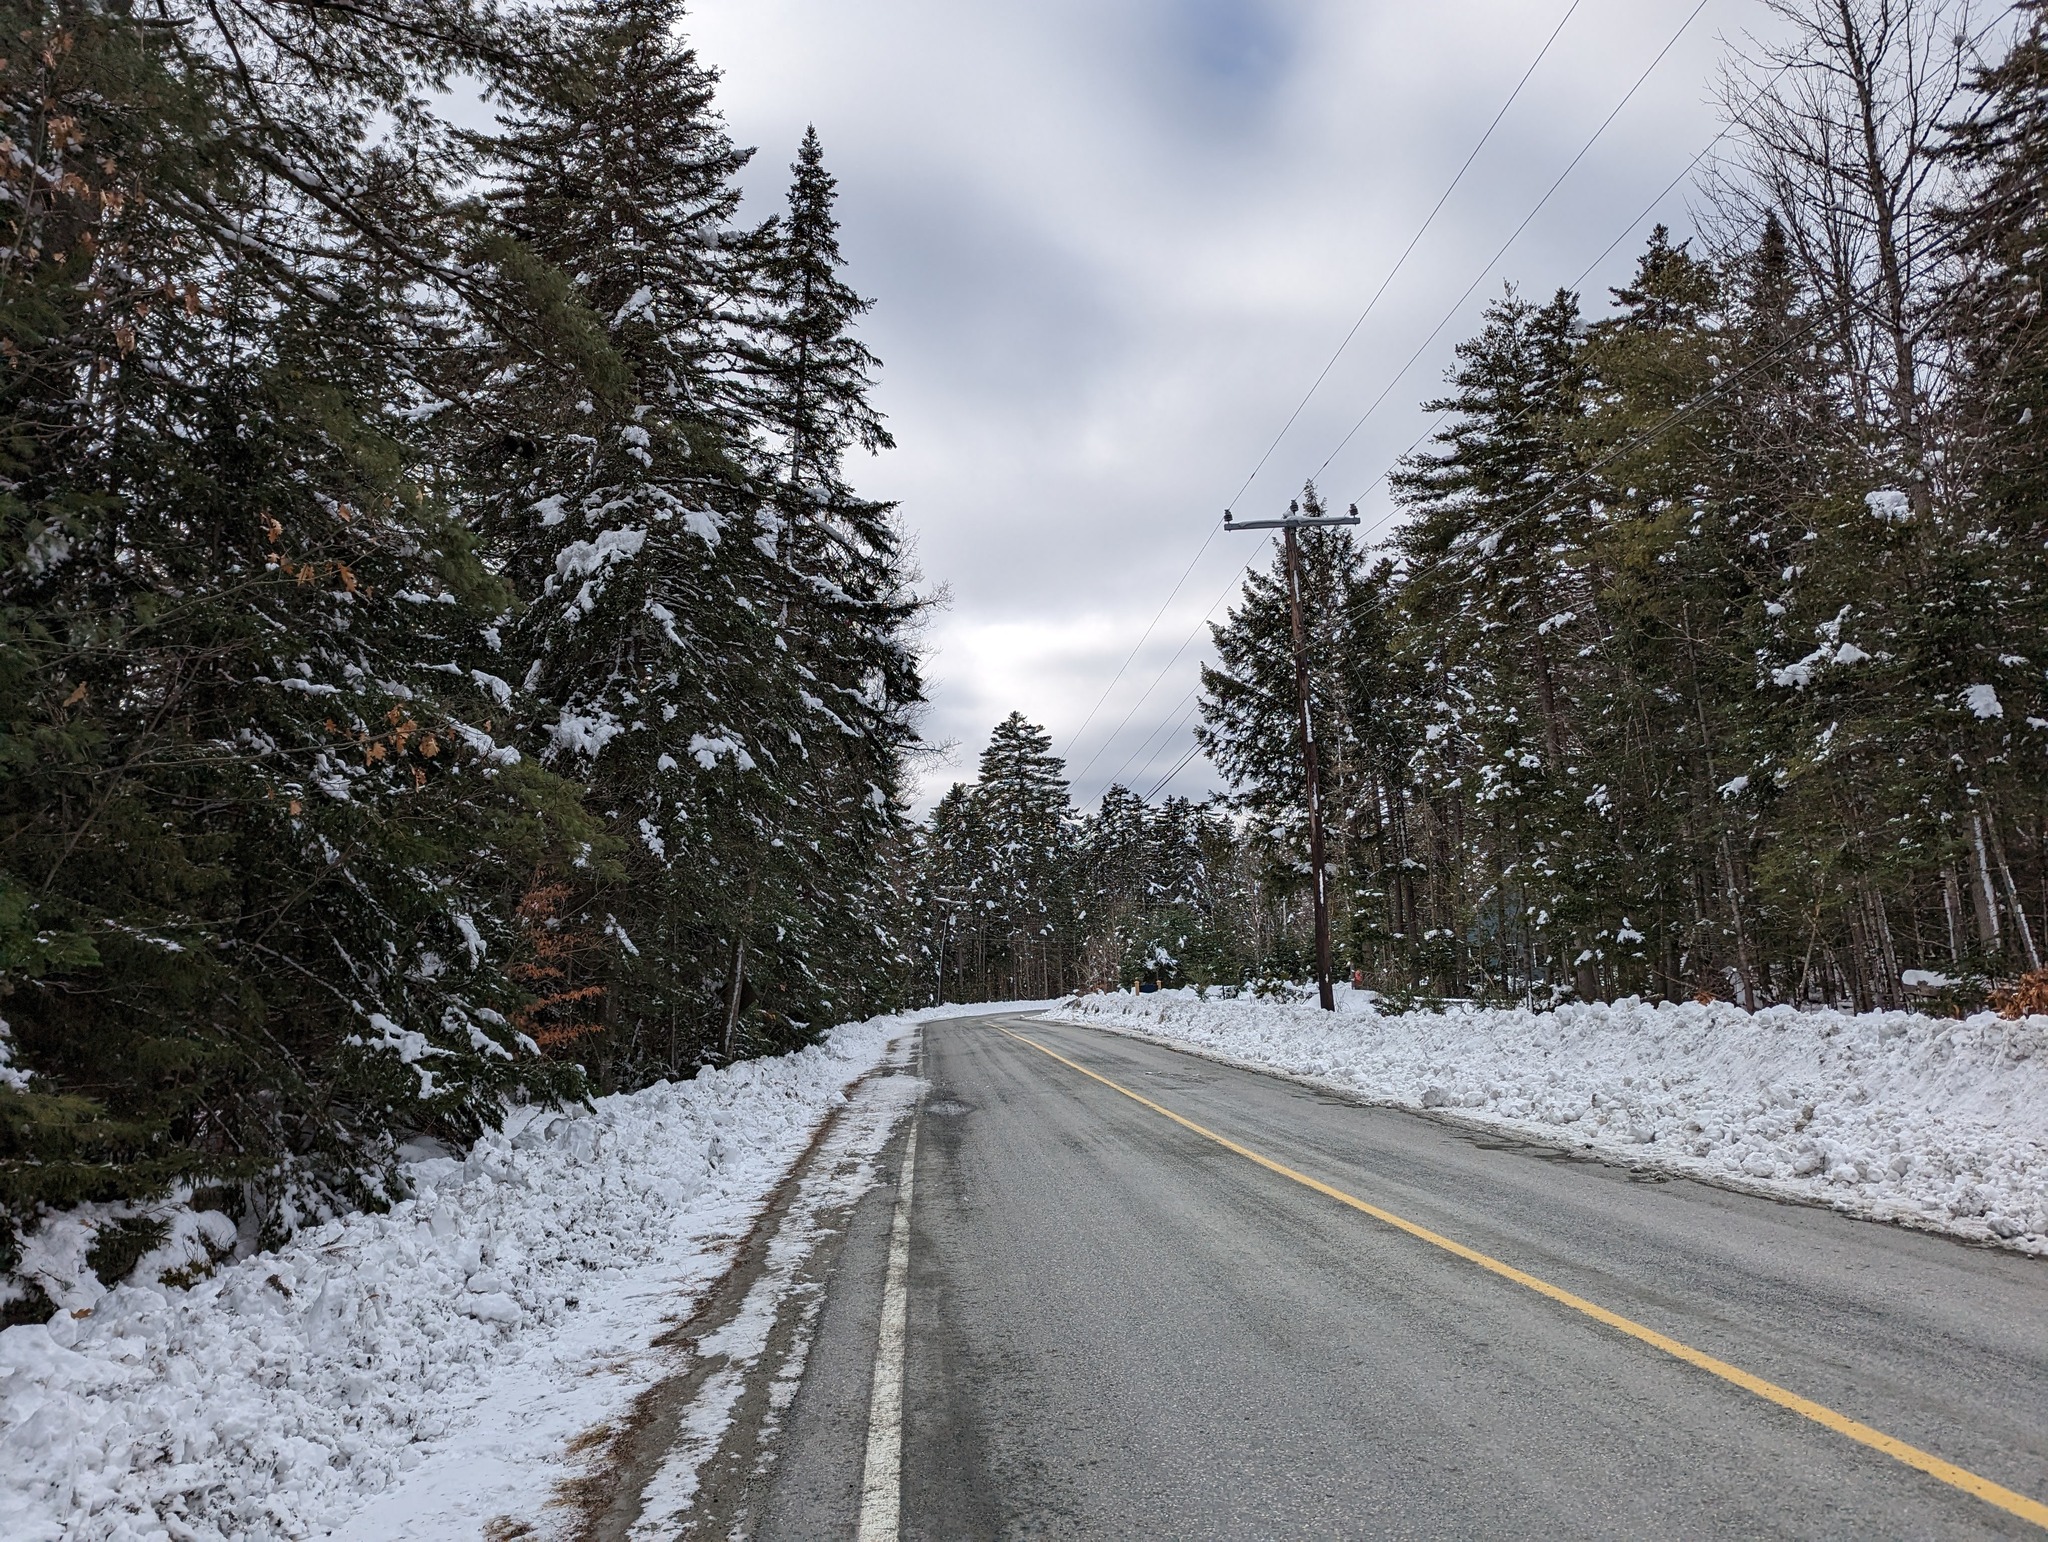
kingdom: Plantae
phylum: Tracheophyta
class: Pinopsida
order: Pinales
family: Pinaceae
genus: Pinus
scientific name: Pinus strobus
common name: Weymouth pine
